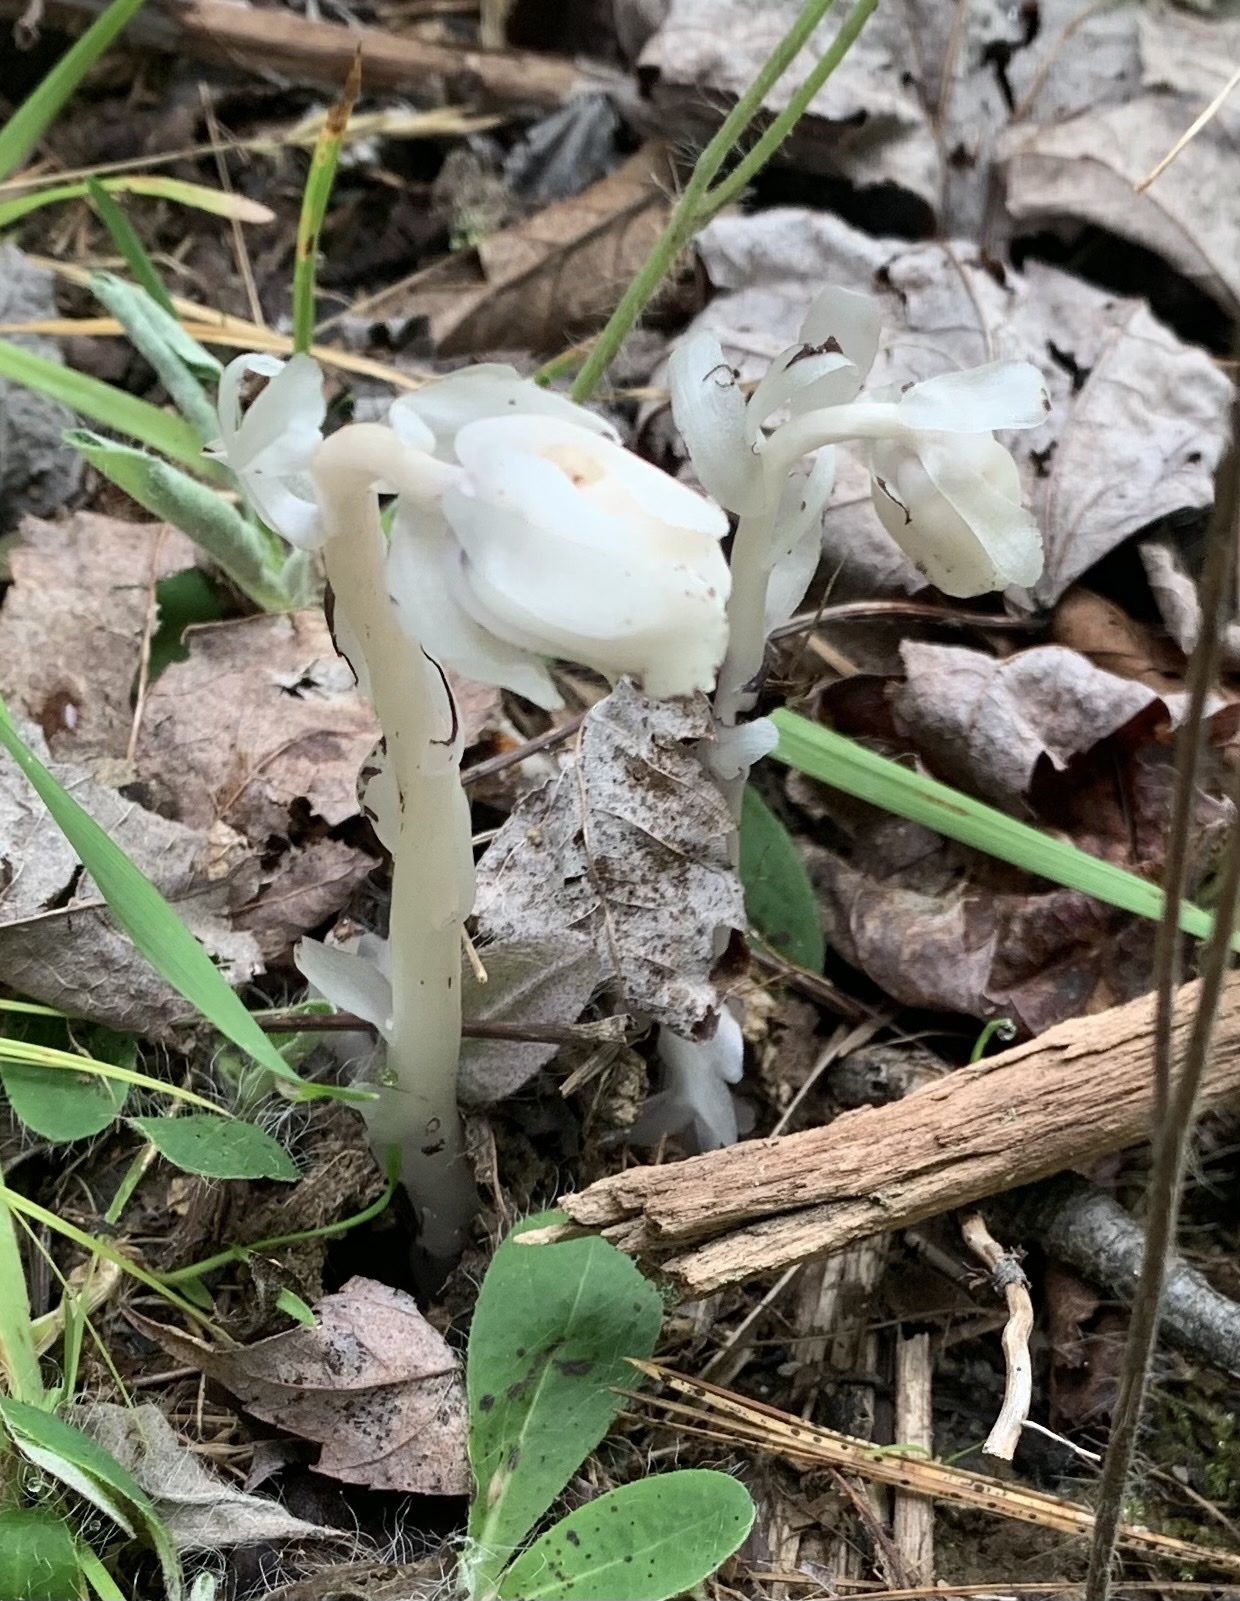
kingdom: Plantae
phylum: Tracheophyta
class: Magnoliopsida
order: Ericales
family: Ericaceae
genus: Monotropa
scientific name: Monotropa uniflora
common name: Convulsion root
